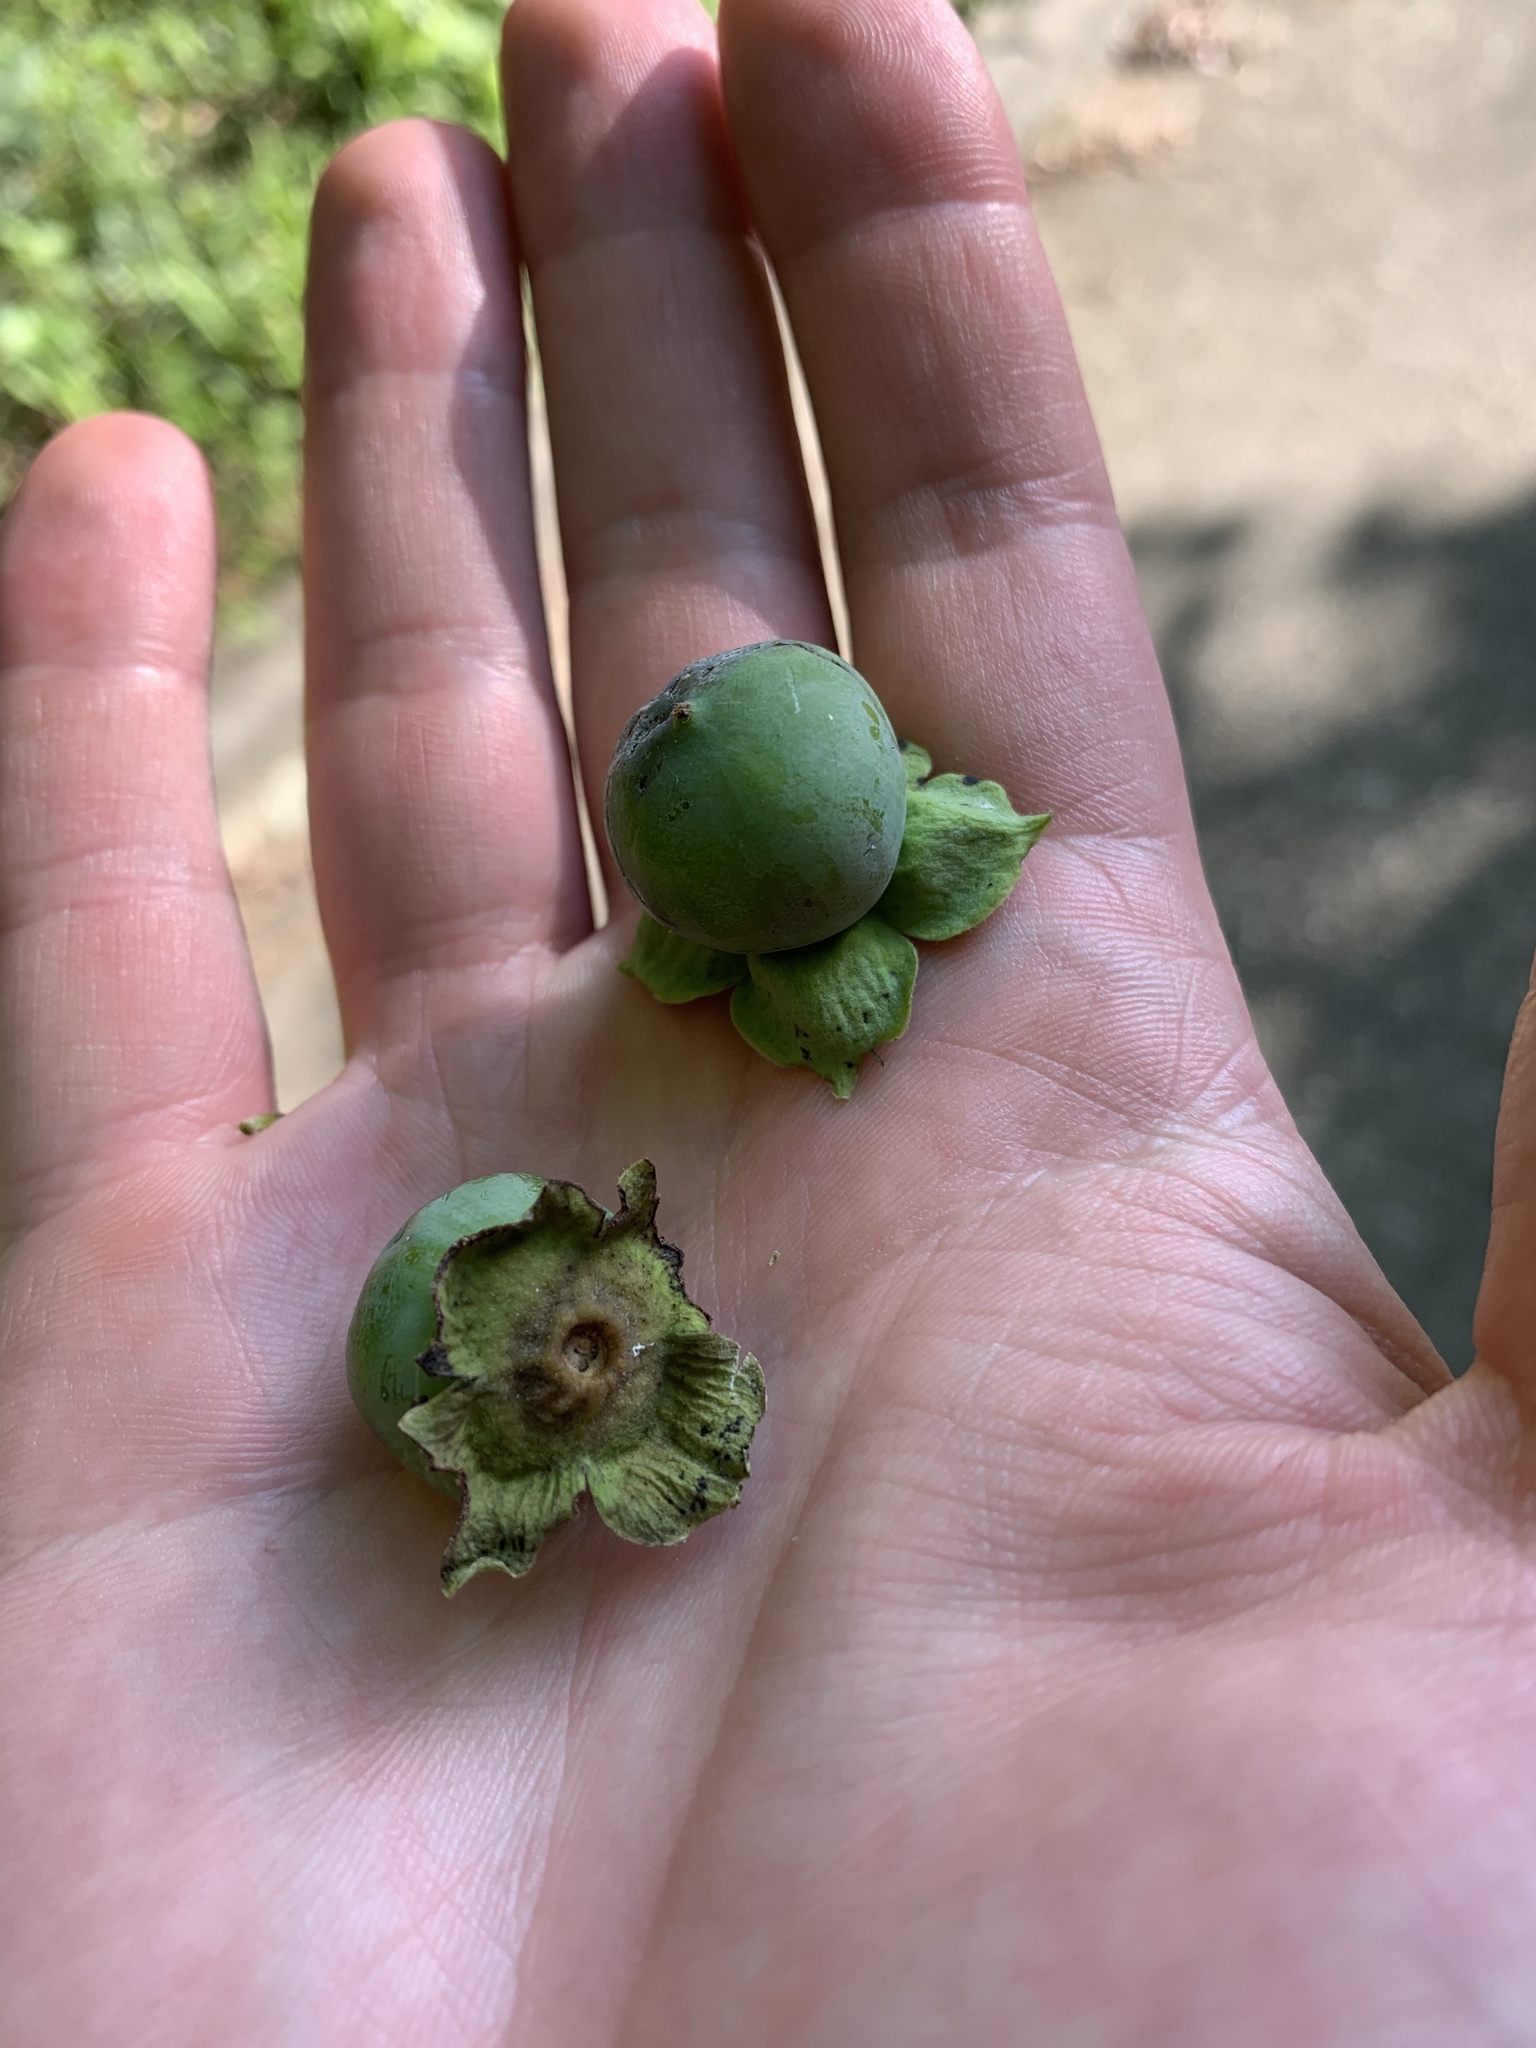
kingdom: Plantae
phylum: Tracheophyta
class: Magnoliopsida
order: Ericales
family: Ebenaceae
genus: Diospyros
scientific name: Diospyros virginiana
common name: Persimmon
